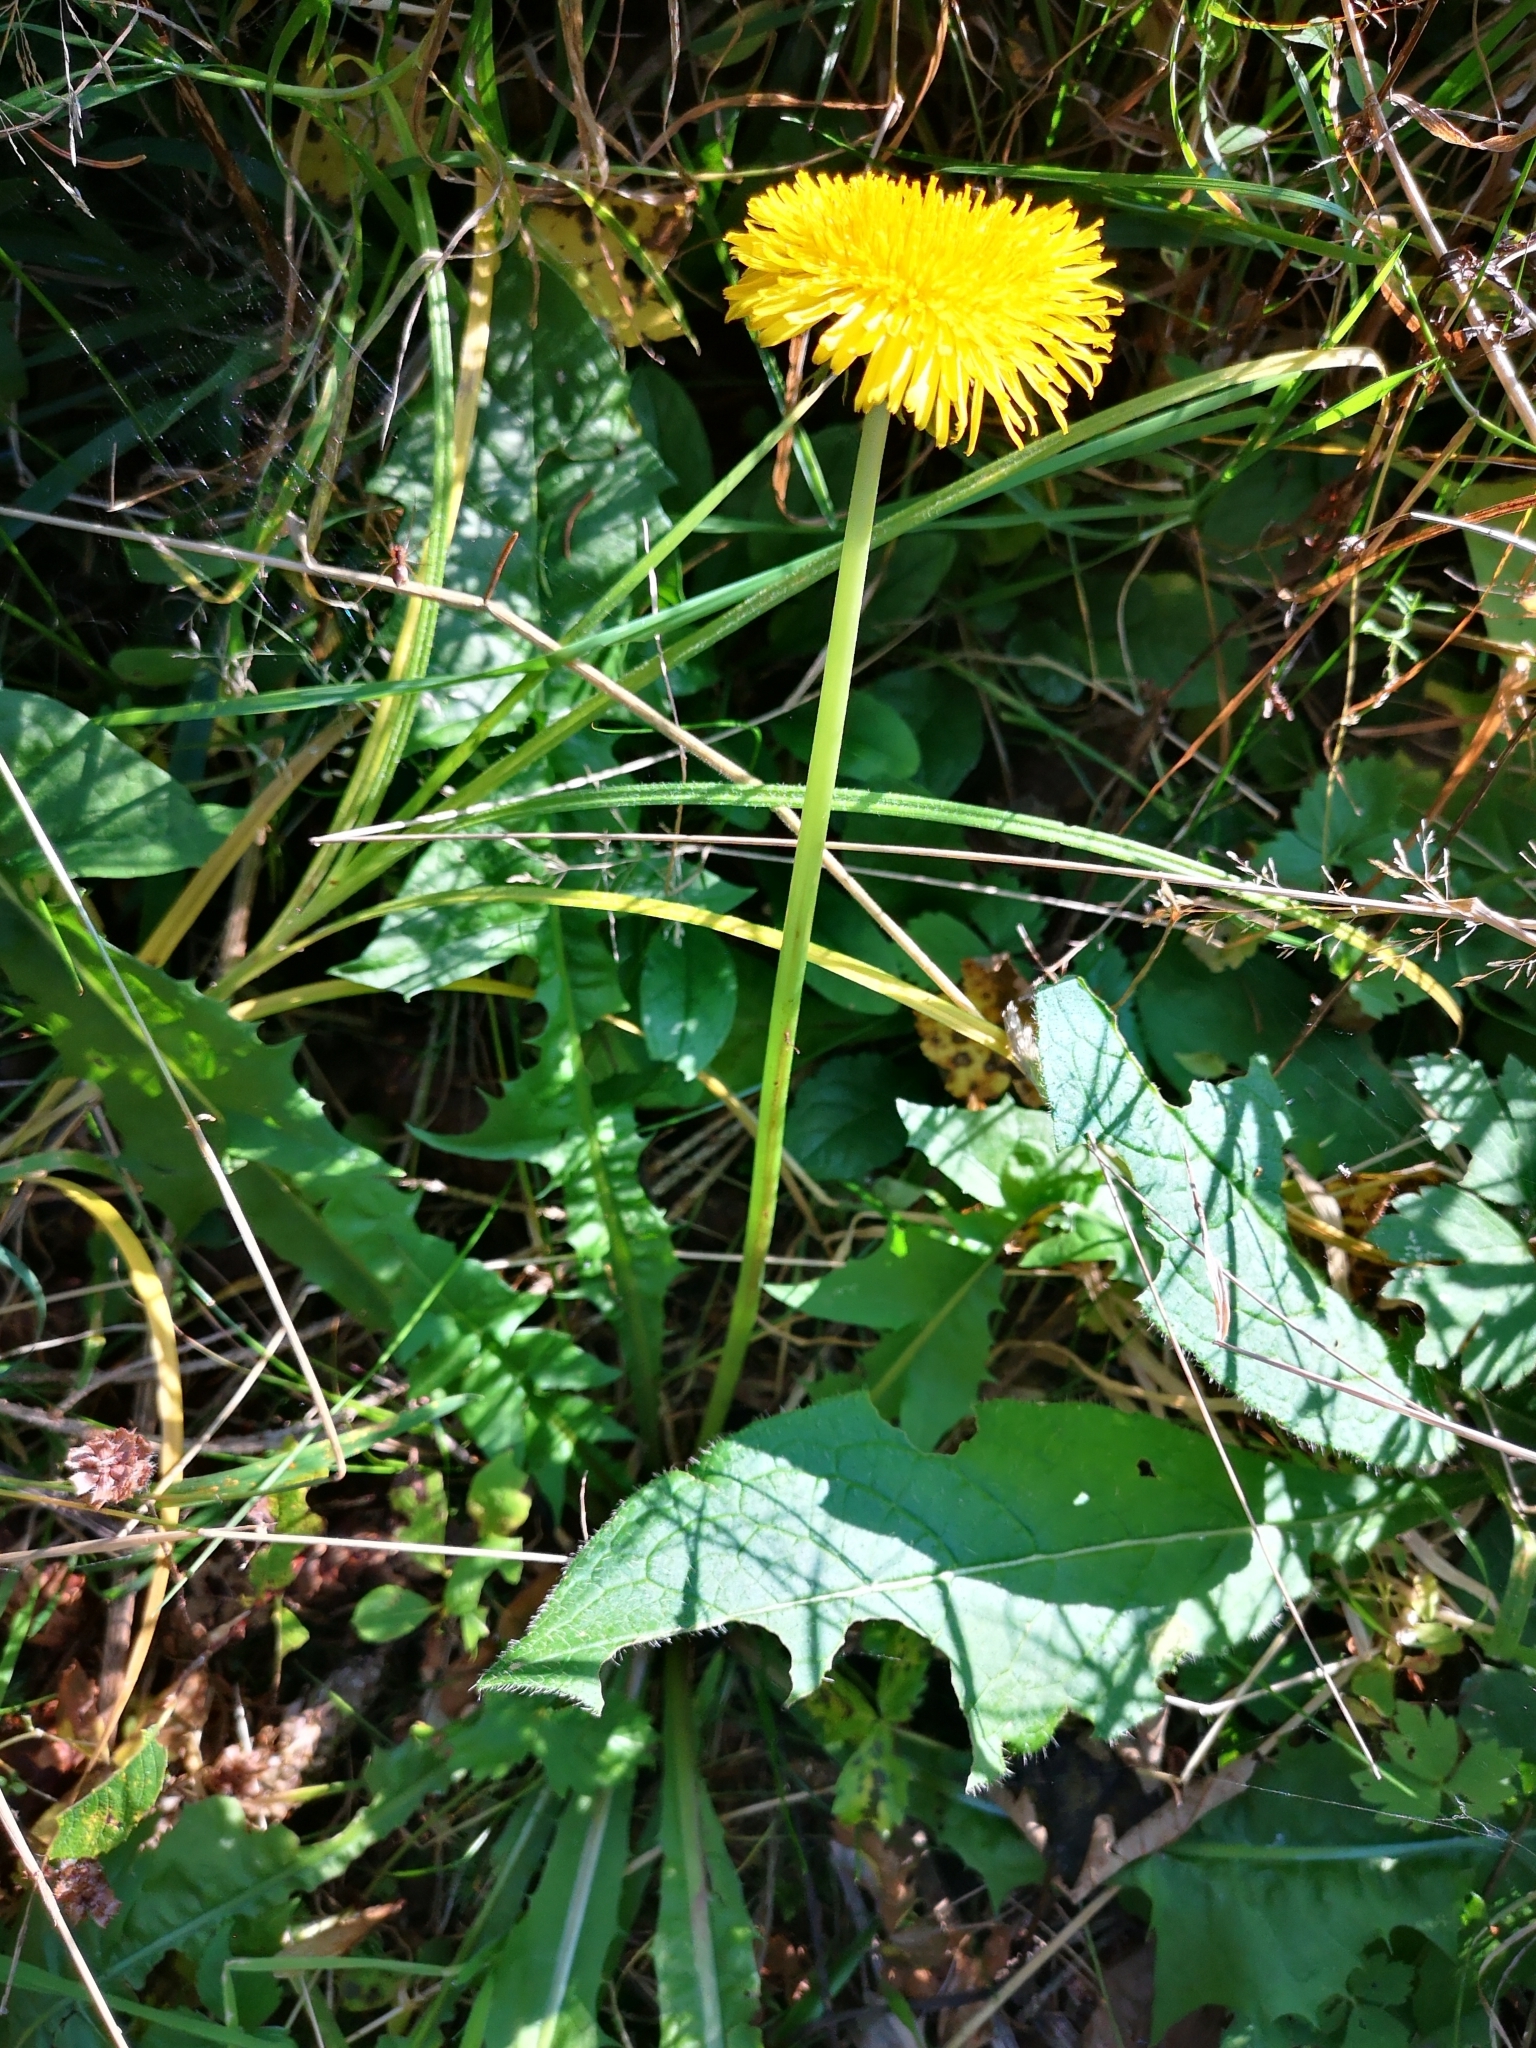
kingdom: Plantae
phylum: Tracheophyta
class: Magnoliopsida
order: Asterales
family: Asteraceae
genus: Taraxacum
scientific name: Taraxacum officinale
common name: Common dandelion
